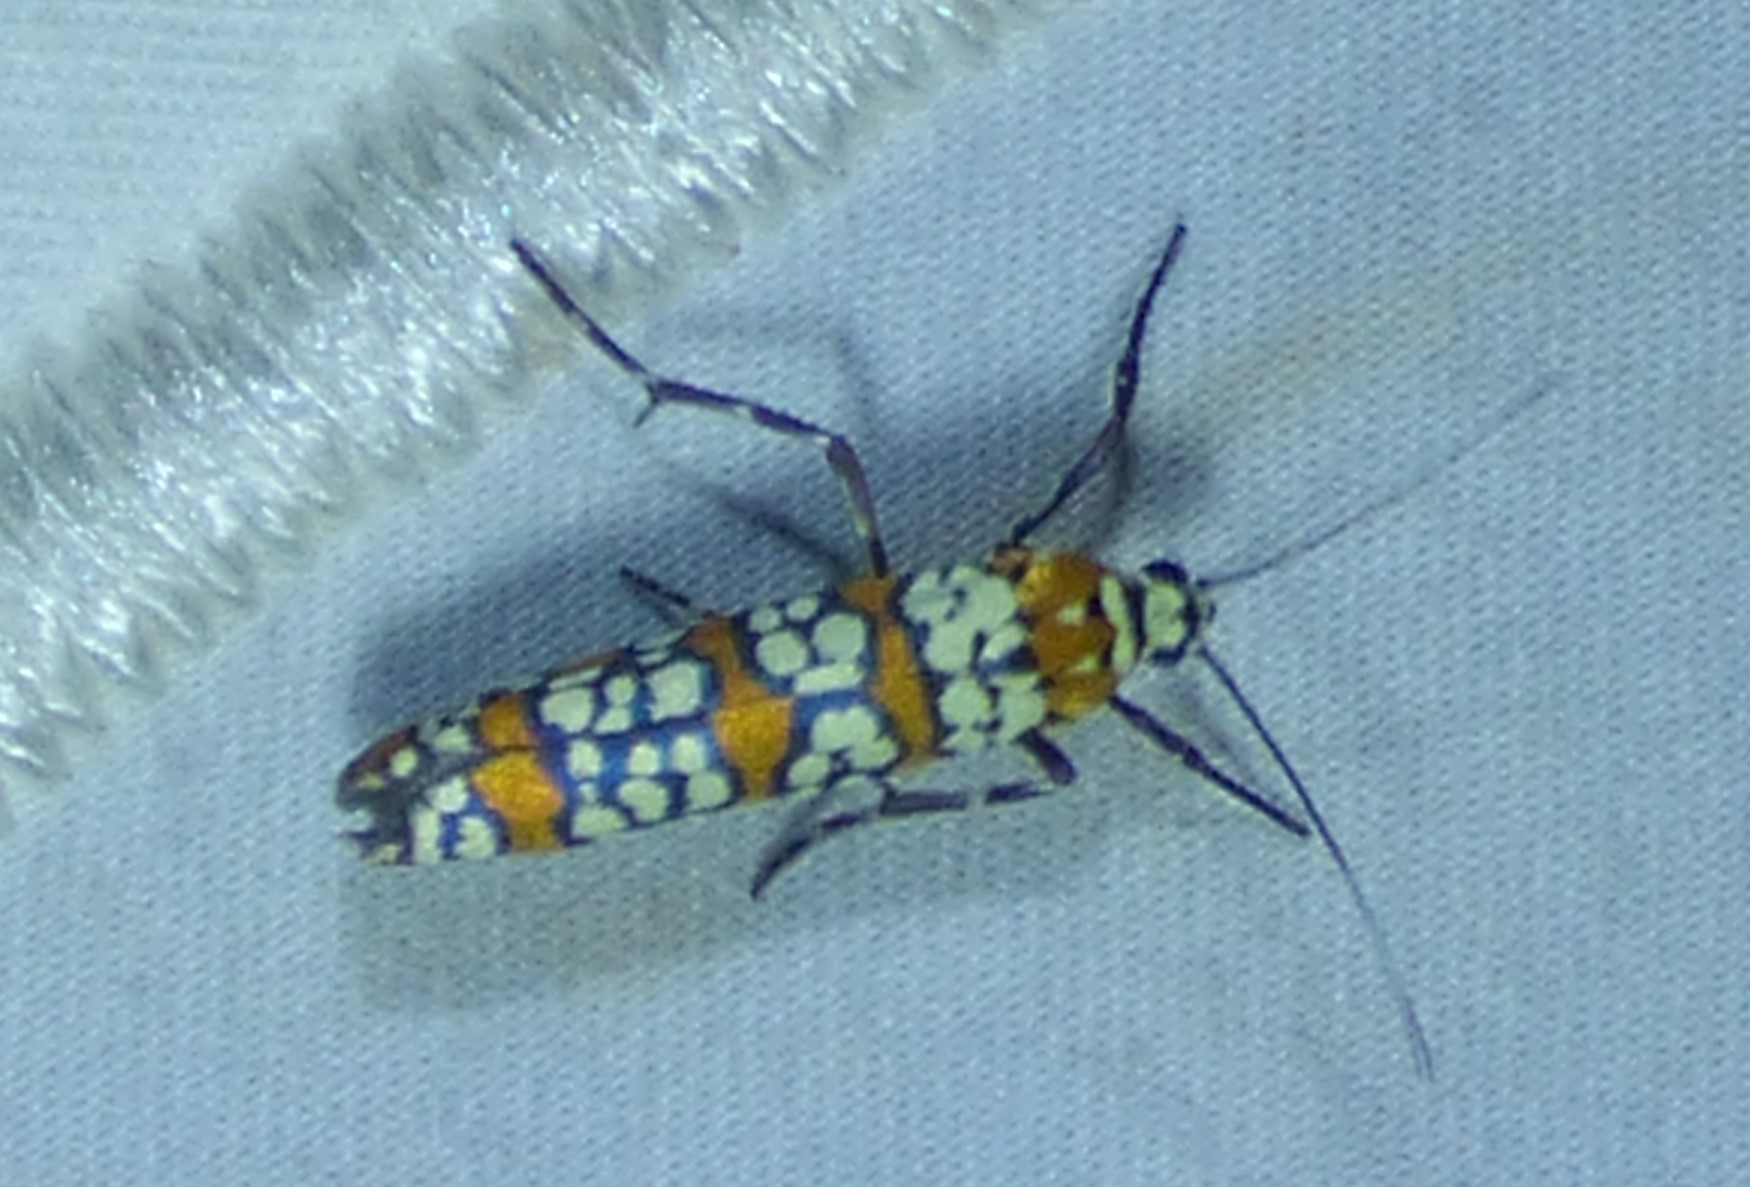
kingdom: Animalia
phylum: Arthropoda
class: Insecta
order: Lepidoptera
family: Attevidae
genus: Atteva
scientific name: Atteva punctella
